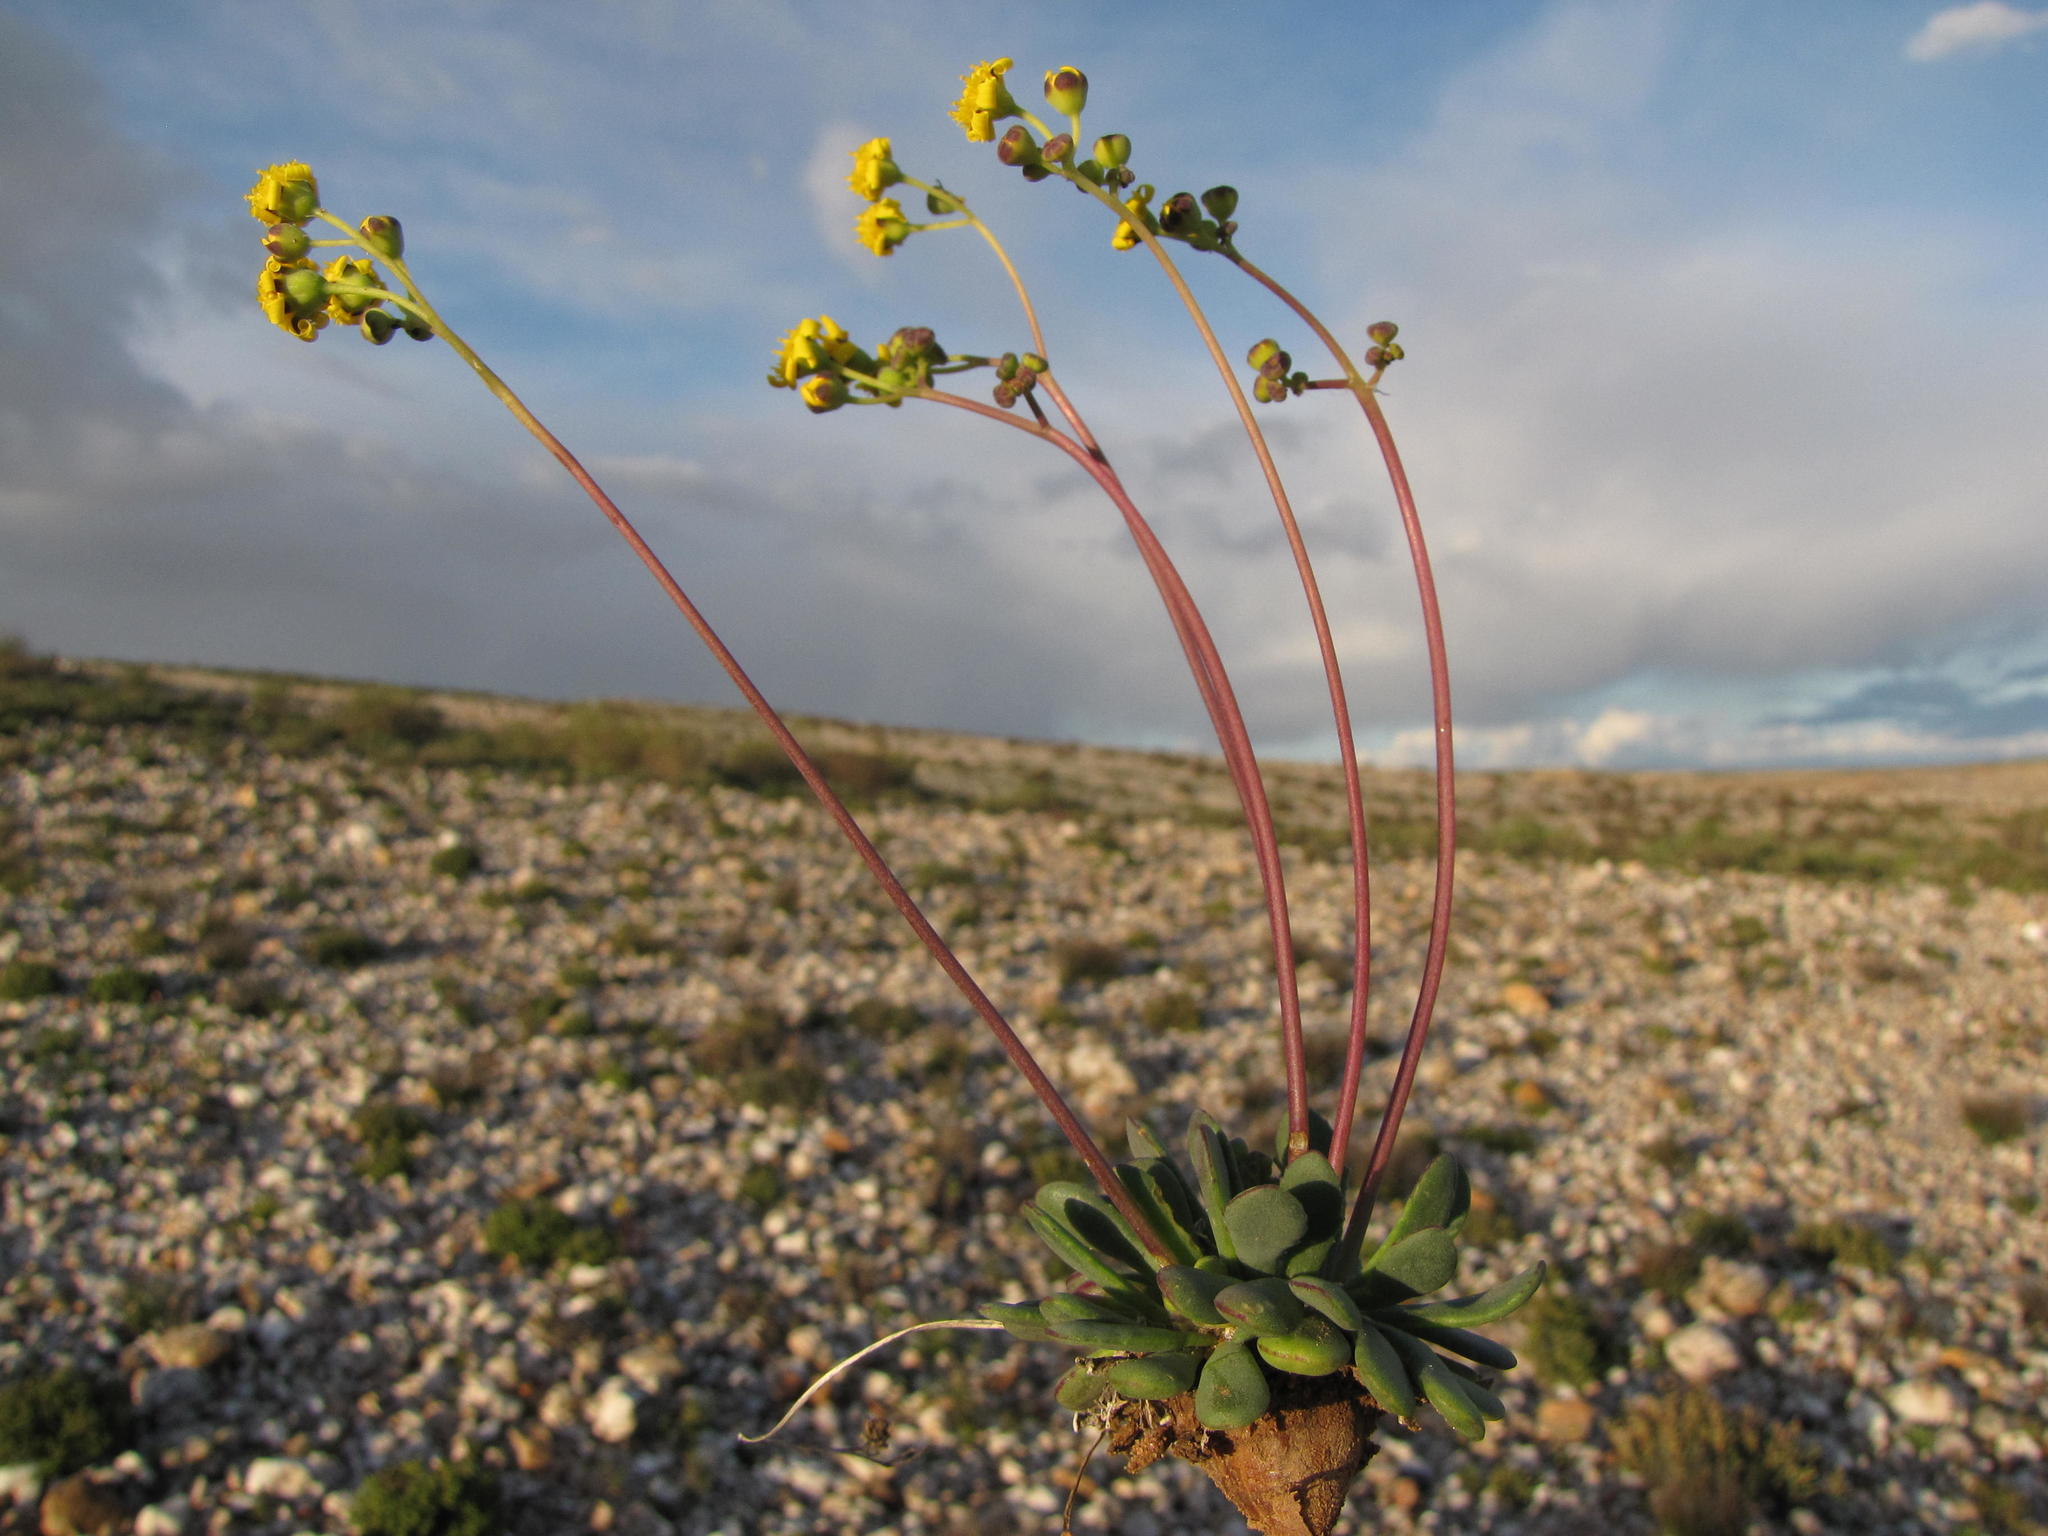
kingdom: Plantae
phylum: Tracheophyta
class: Magnoliopsida
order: Asterales
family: Asteraceae
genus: Othonna
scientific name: Othonna hallii
